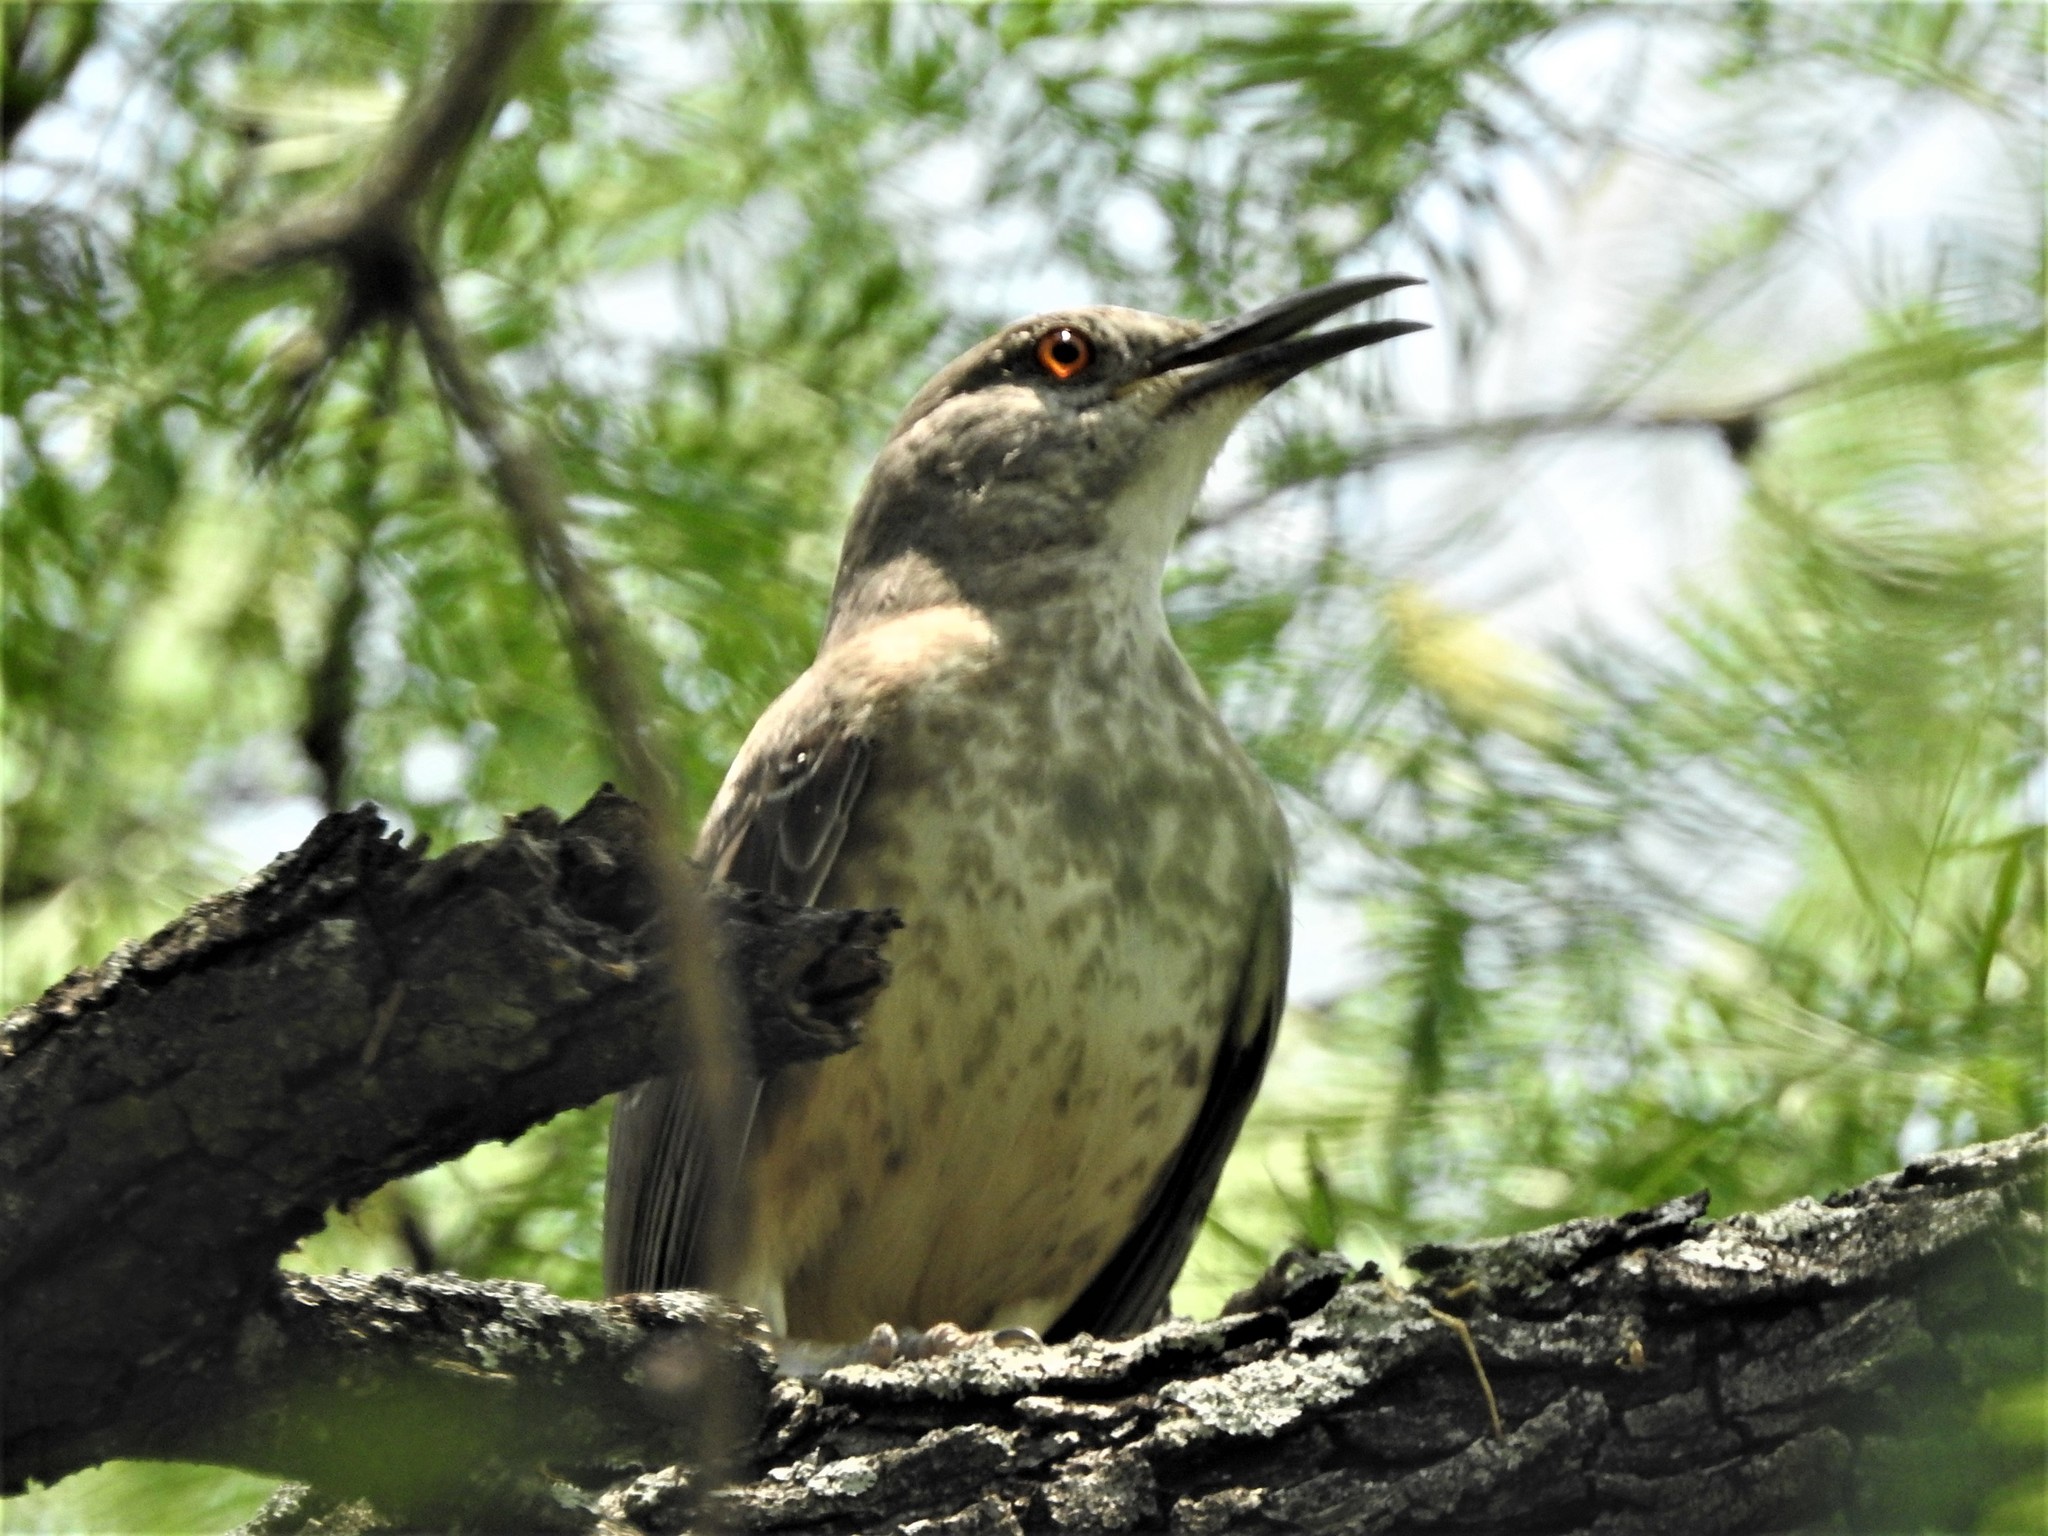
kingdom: Animalia
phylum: Chordata
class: Aves
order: Passeriformes
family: Mimidae
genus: Toxostoma
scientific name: Toxostoma curvirostre
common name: Curve-billed thrasher
